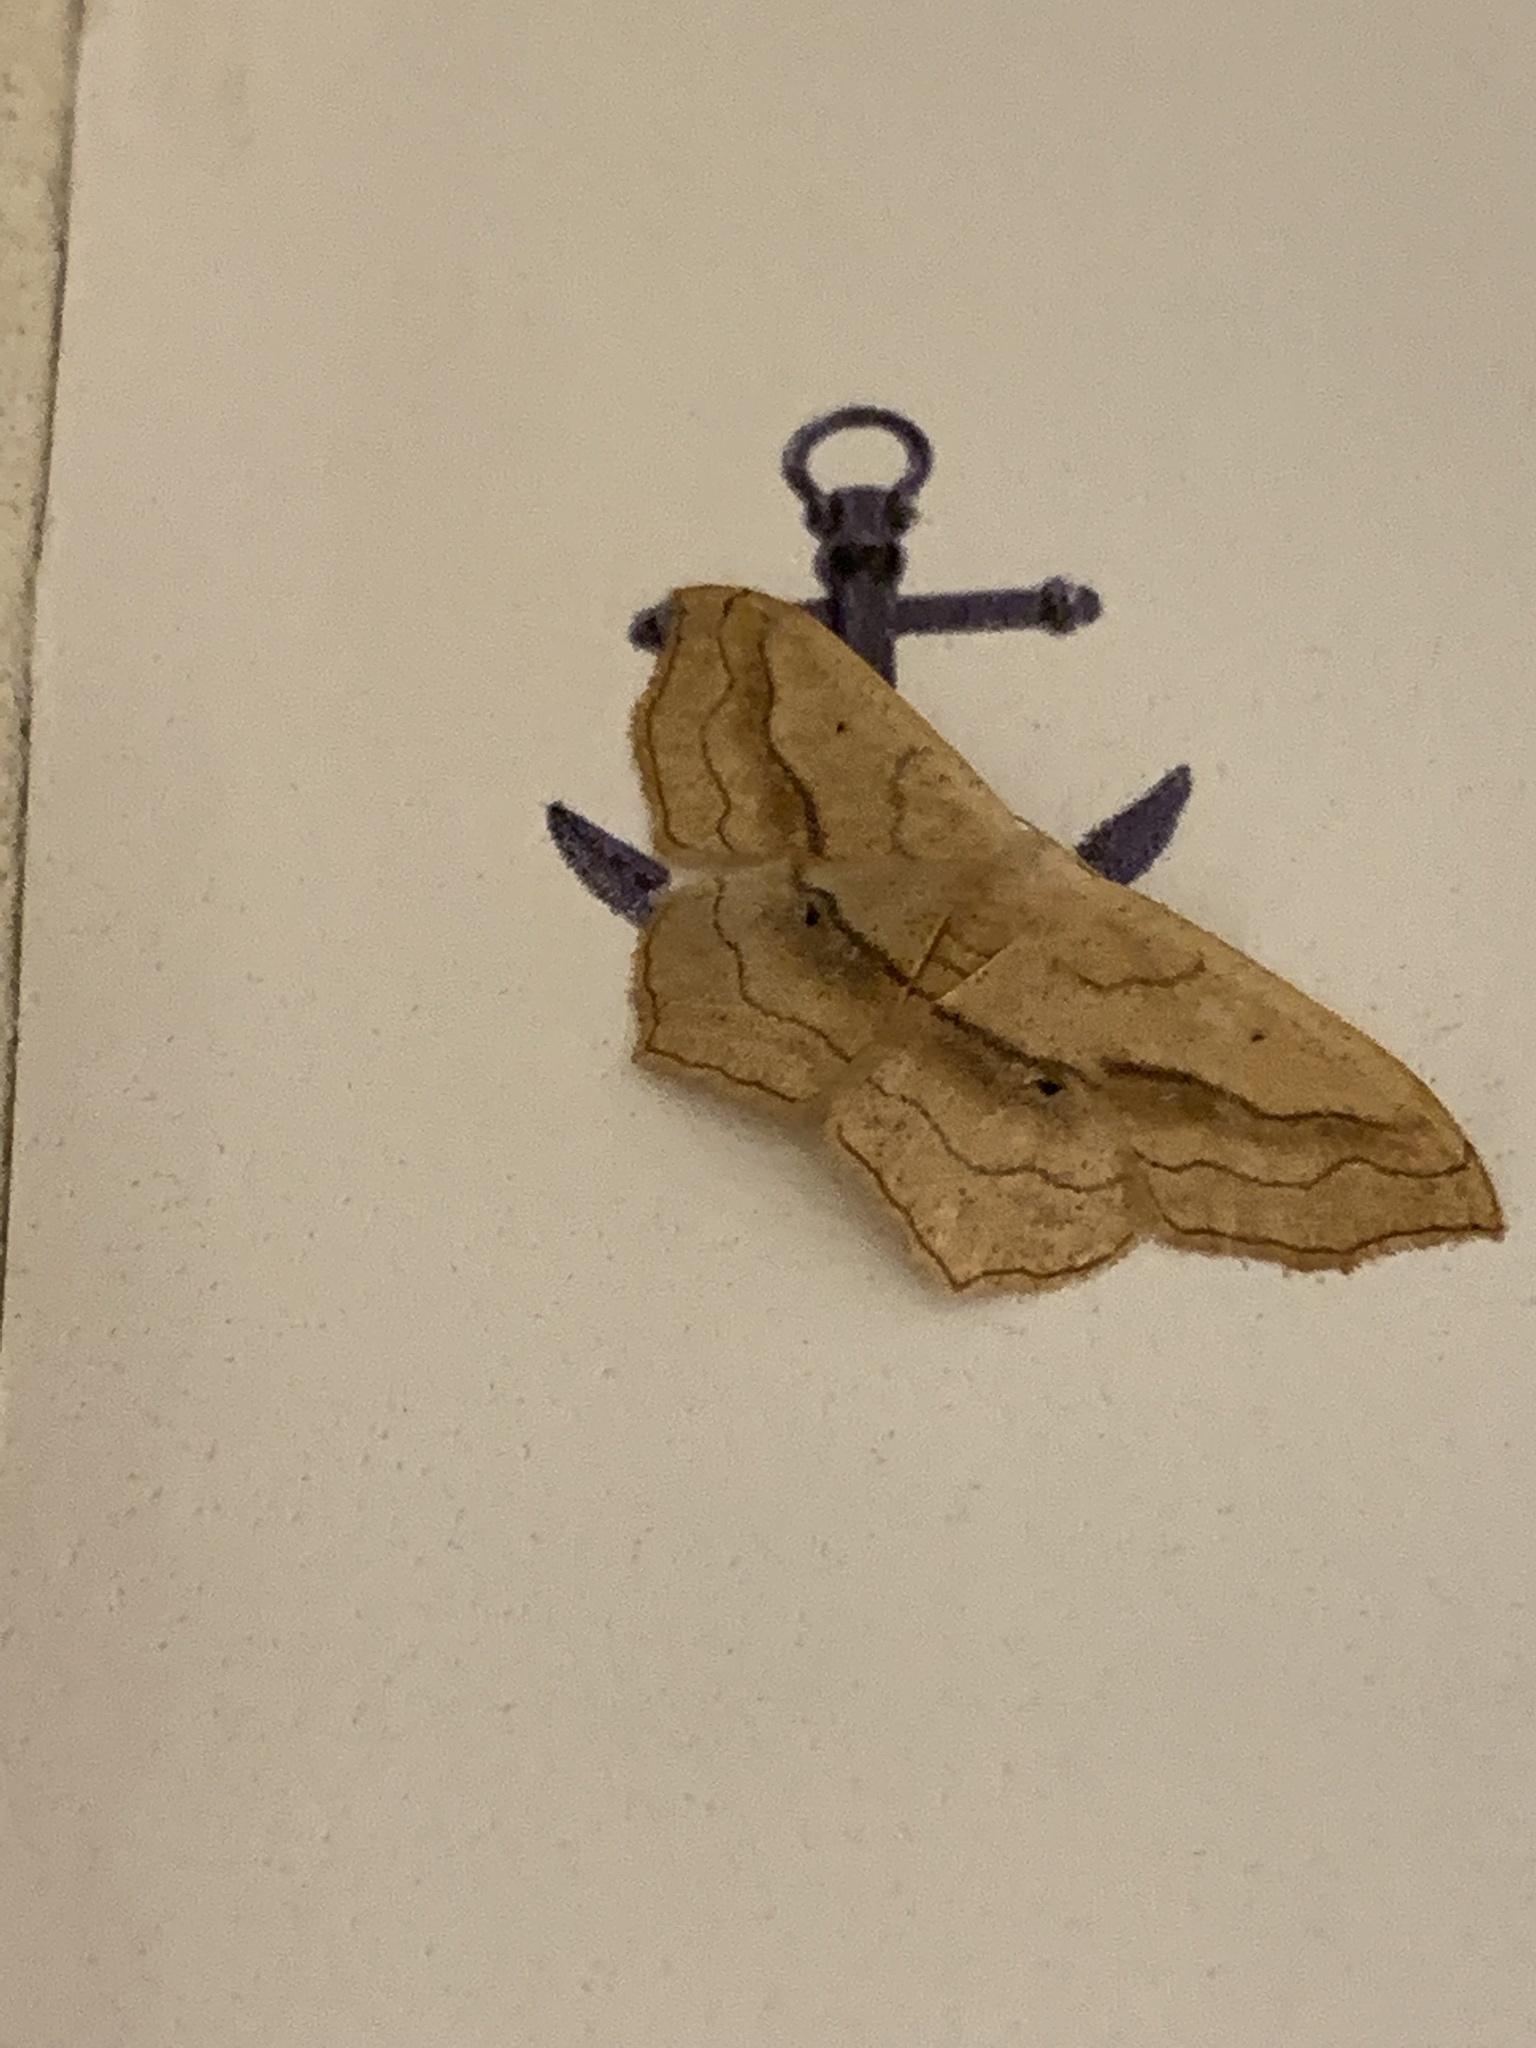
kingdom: Animalia
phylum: Arthropoda
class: Insecta
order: Lepidoptera
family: Geometridae
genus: Scopula
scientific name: Scopula imitaria
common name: Small blood-vein
